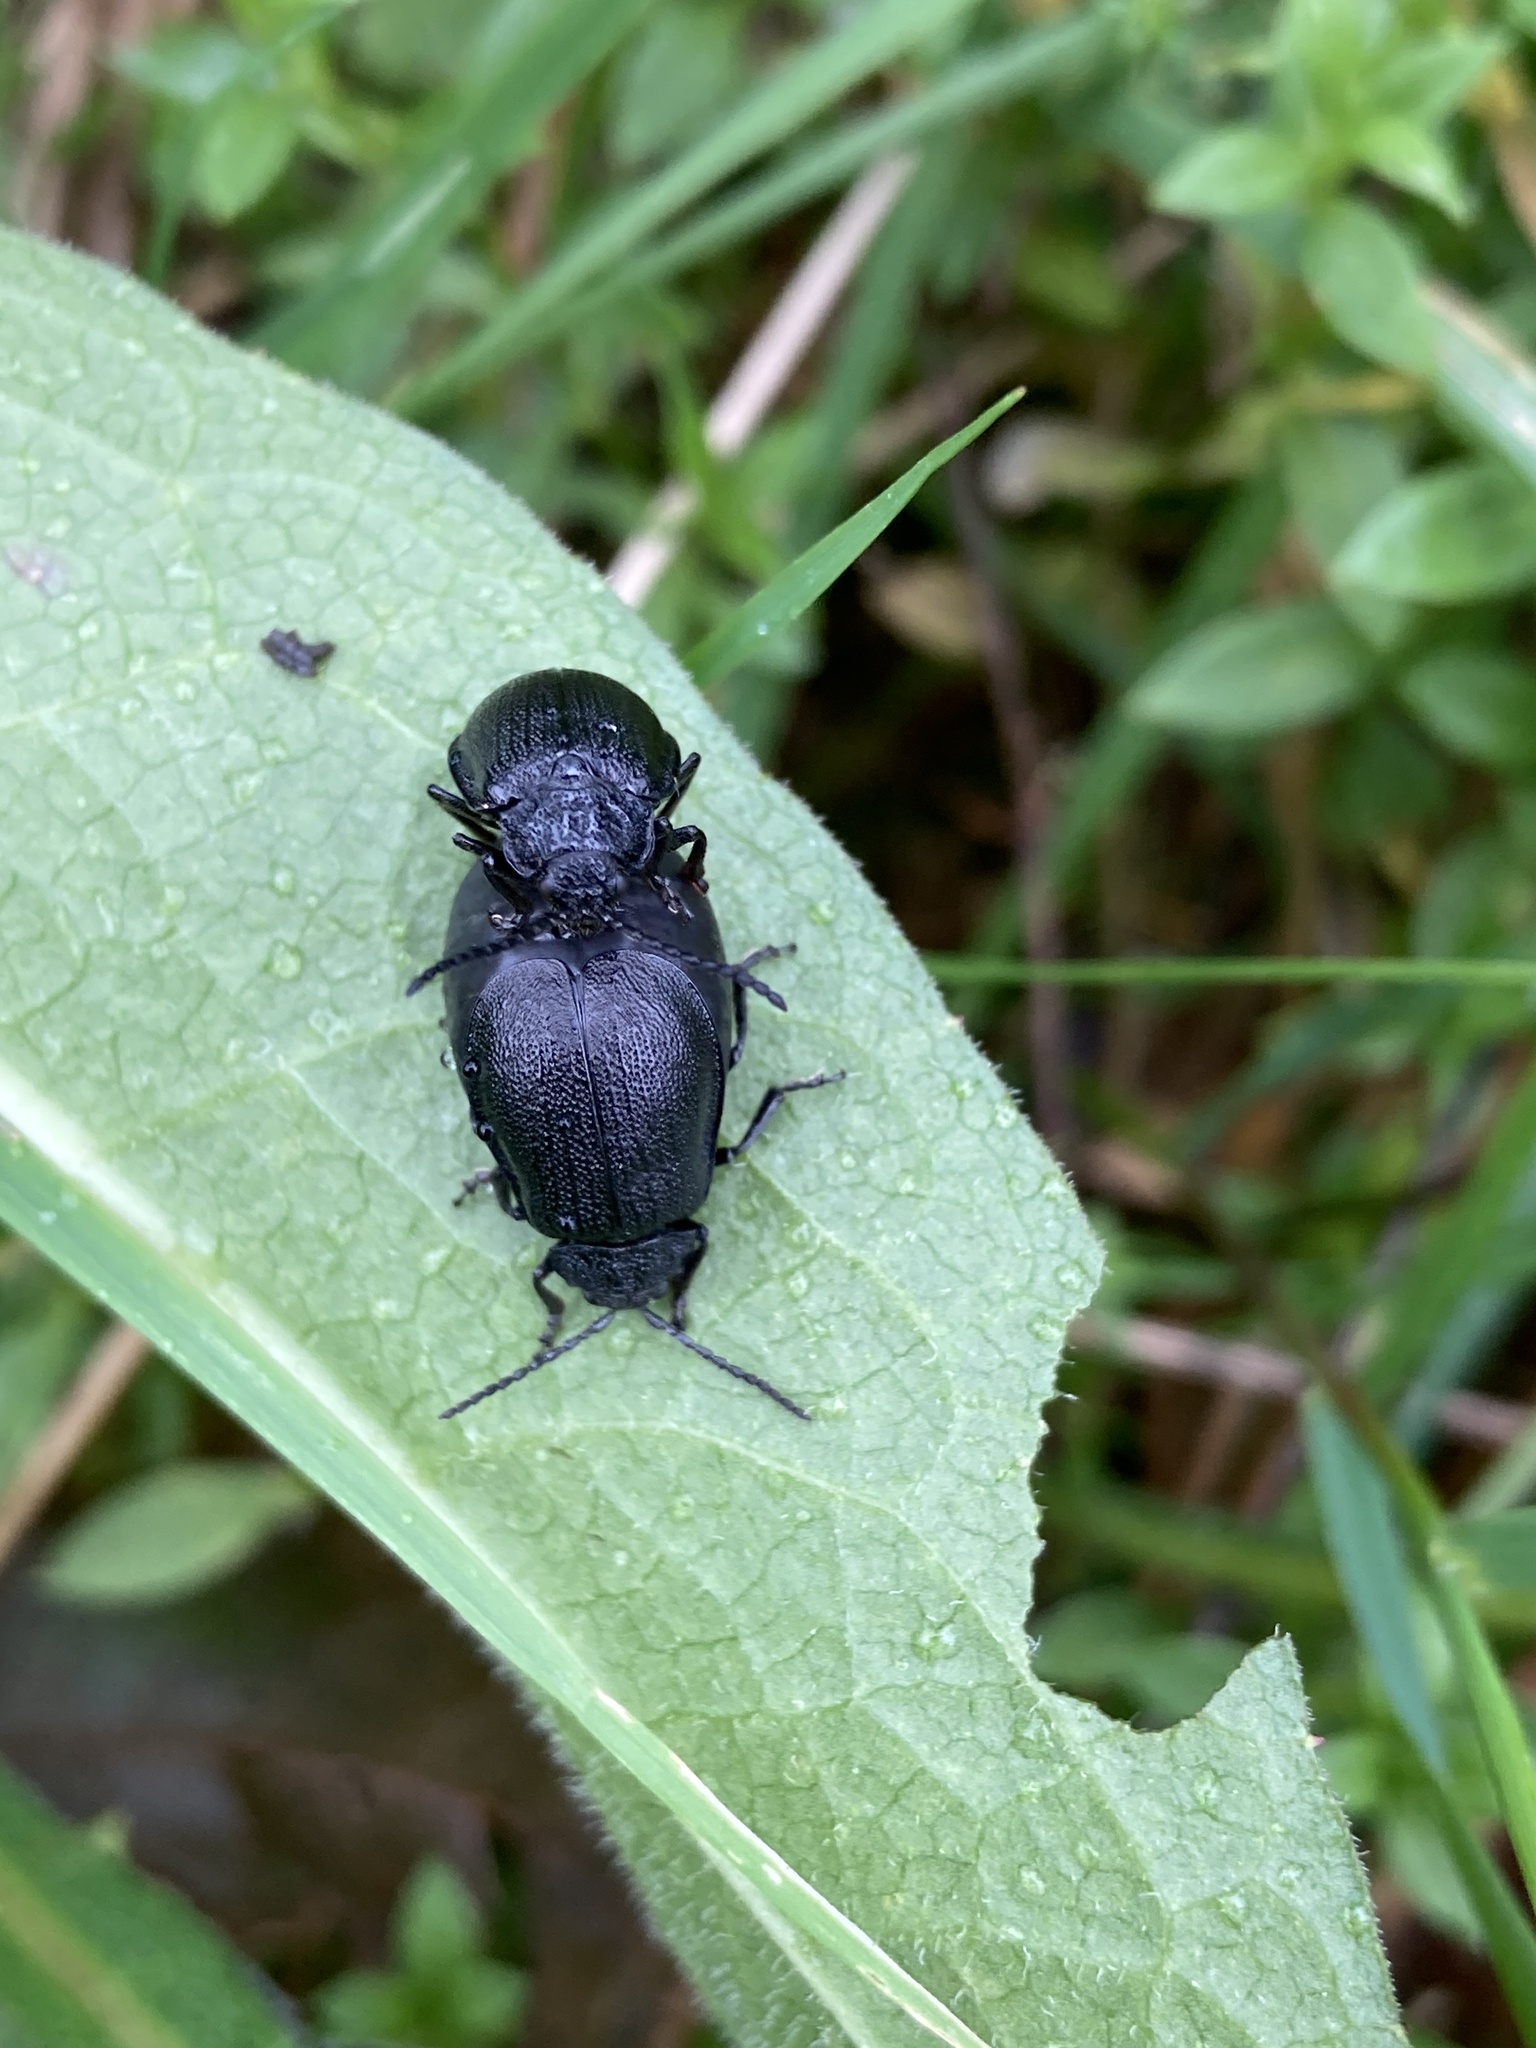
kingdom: Animalia
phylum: Arthropoda
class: Insecta
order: Coleoptera
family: Chrysomelidae
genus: Galeruca
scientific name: Galeruca tanaceti
